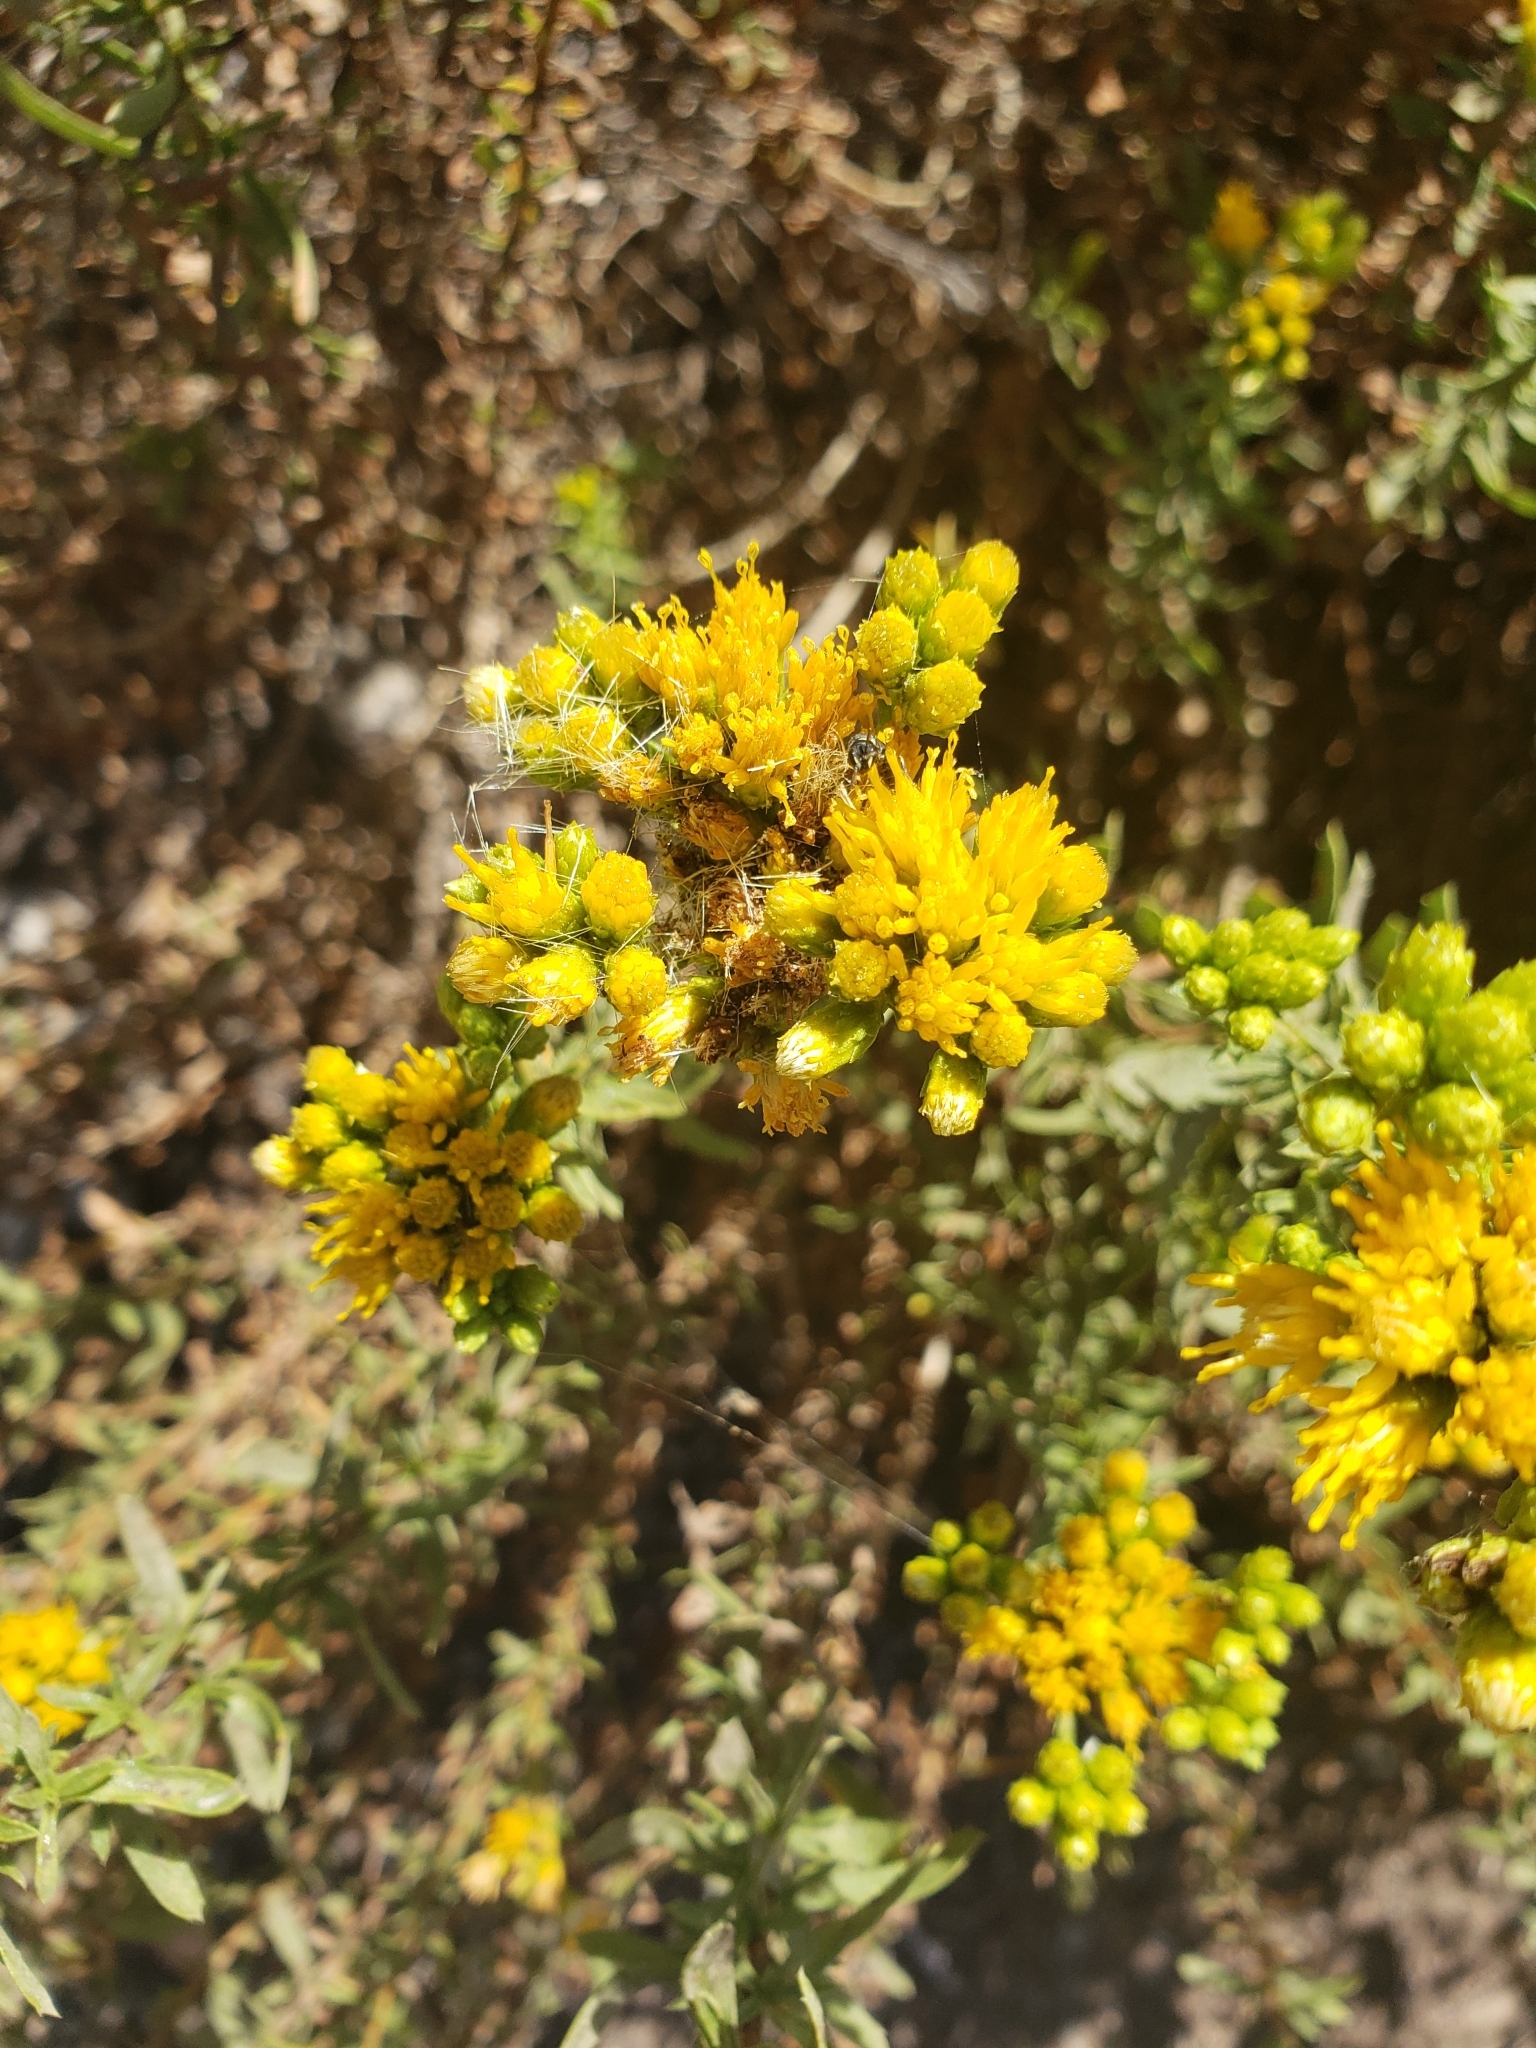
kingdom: Plantae
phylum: Tracheophyta
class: Magnoliopsida
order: Asterales
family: Asteraceae
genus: Isocoma
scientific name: Isocoma menziesii
